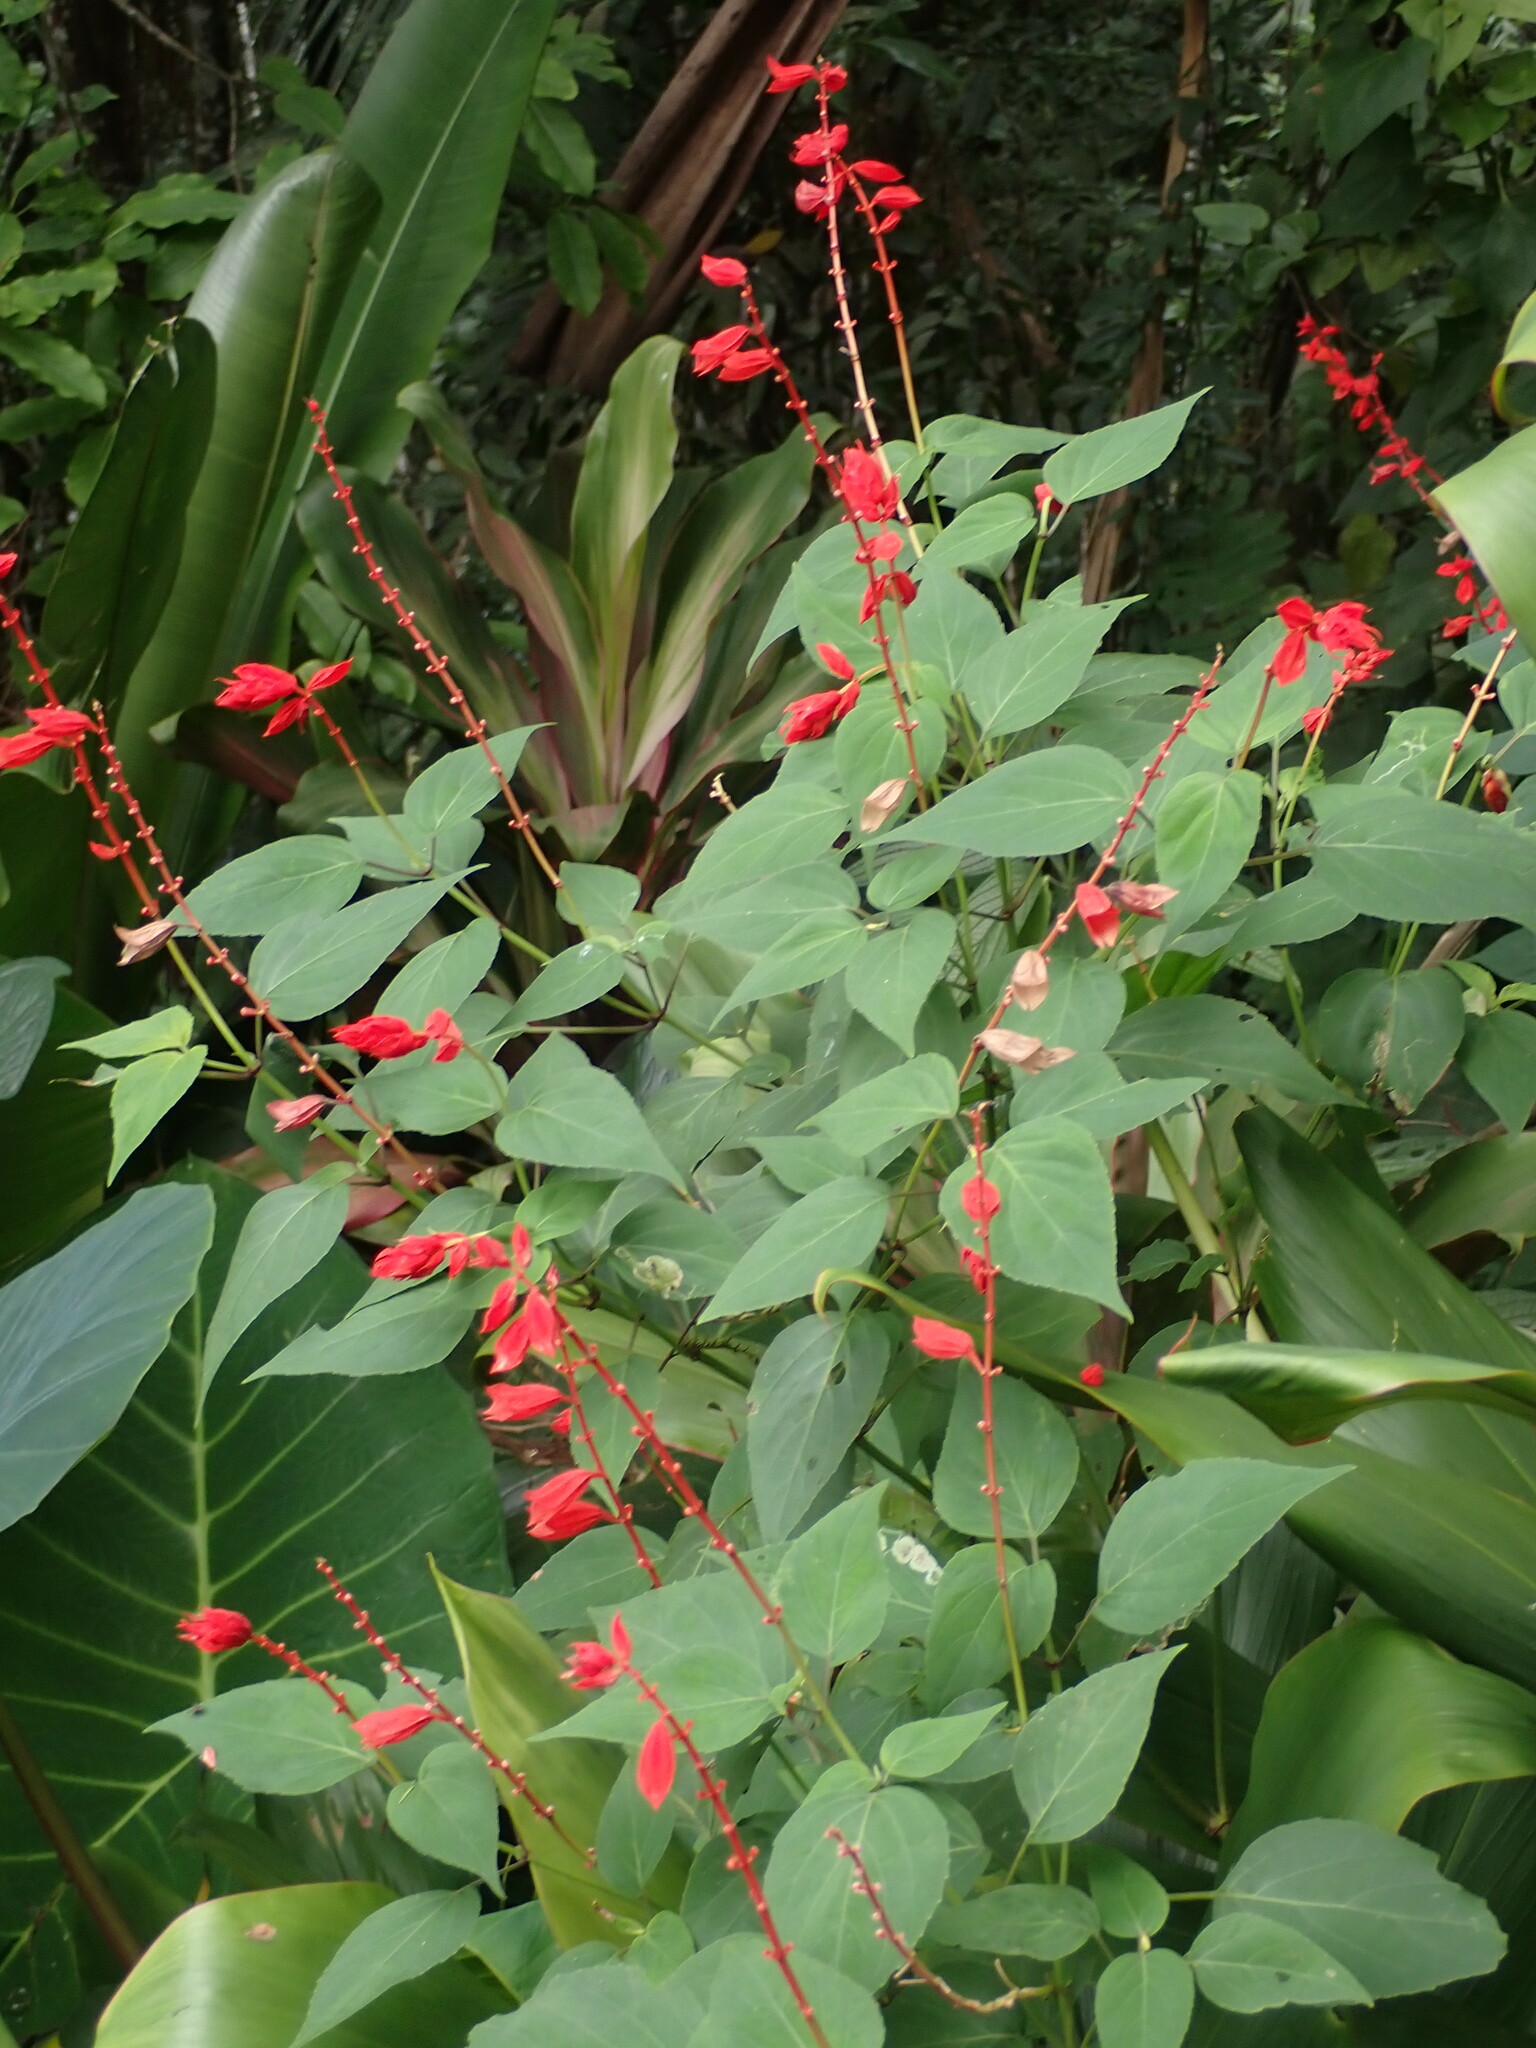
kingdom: Plantae
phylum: Tracheophyta
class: Magnoliopsida
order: Lamiales
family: Lamiaceae
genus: Salvia
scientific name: Salvia splendens
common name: Scarlet sage
